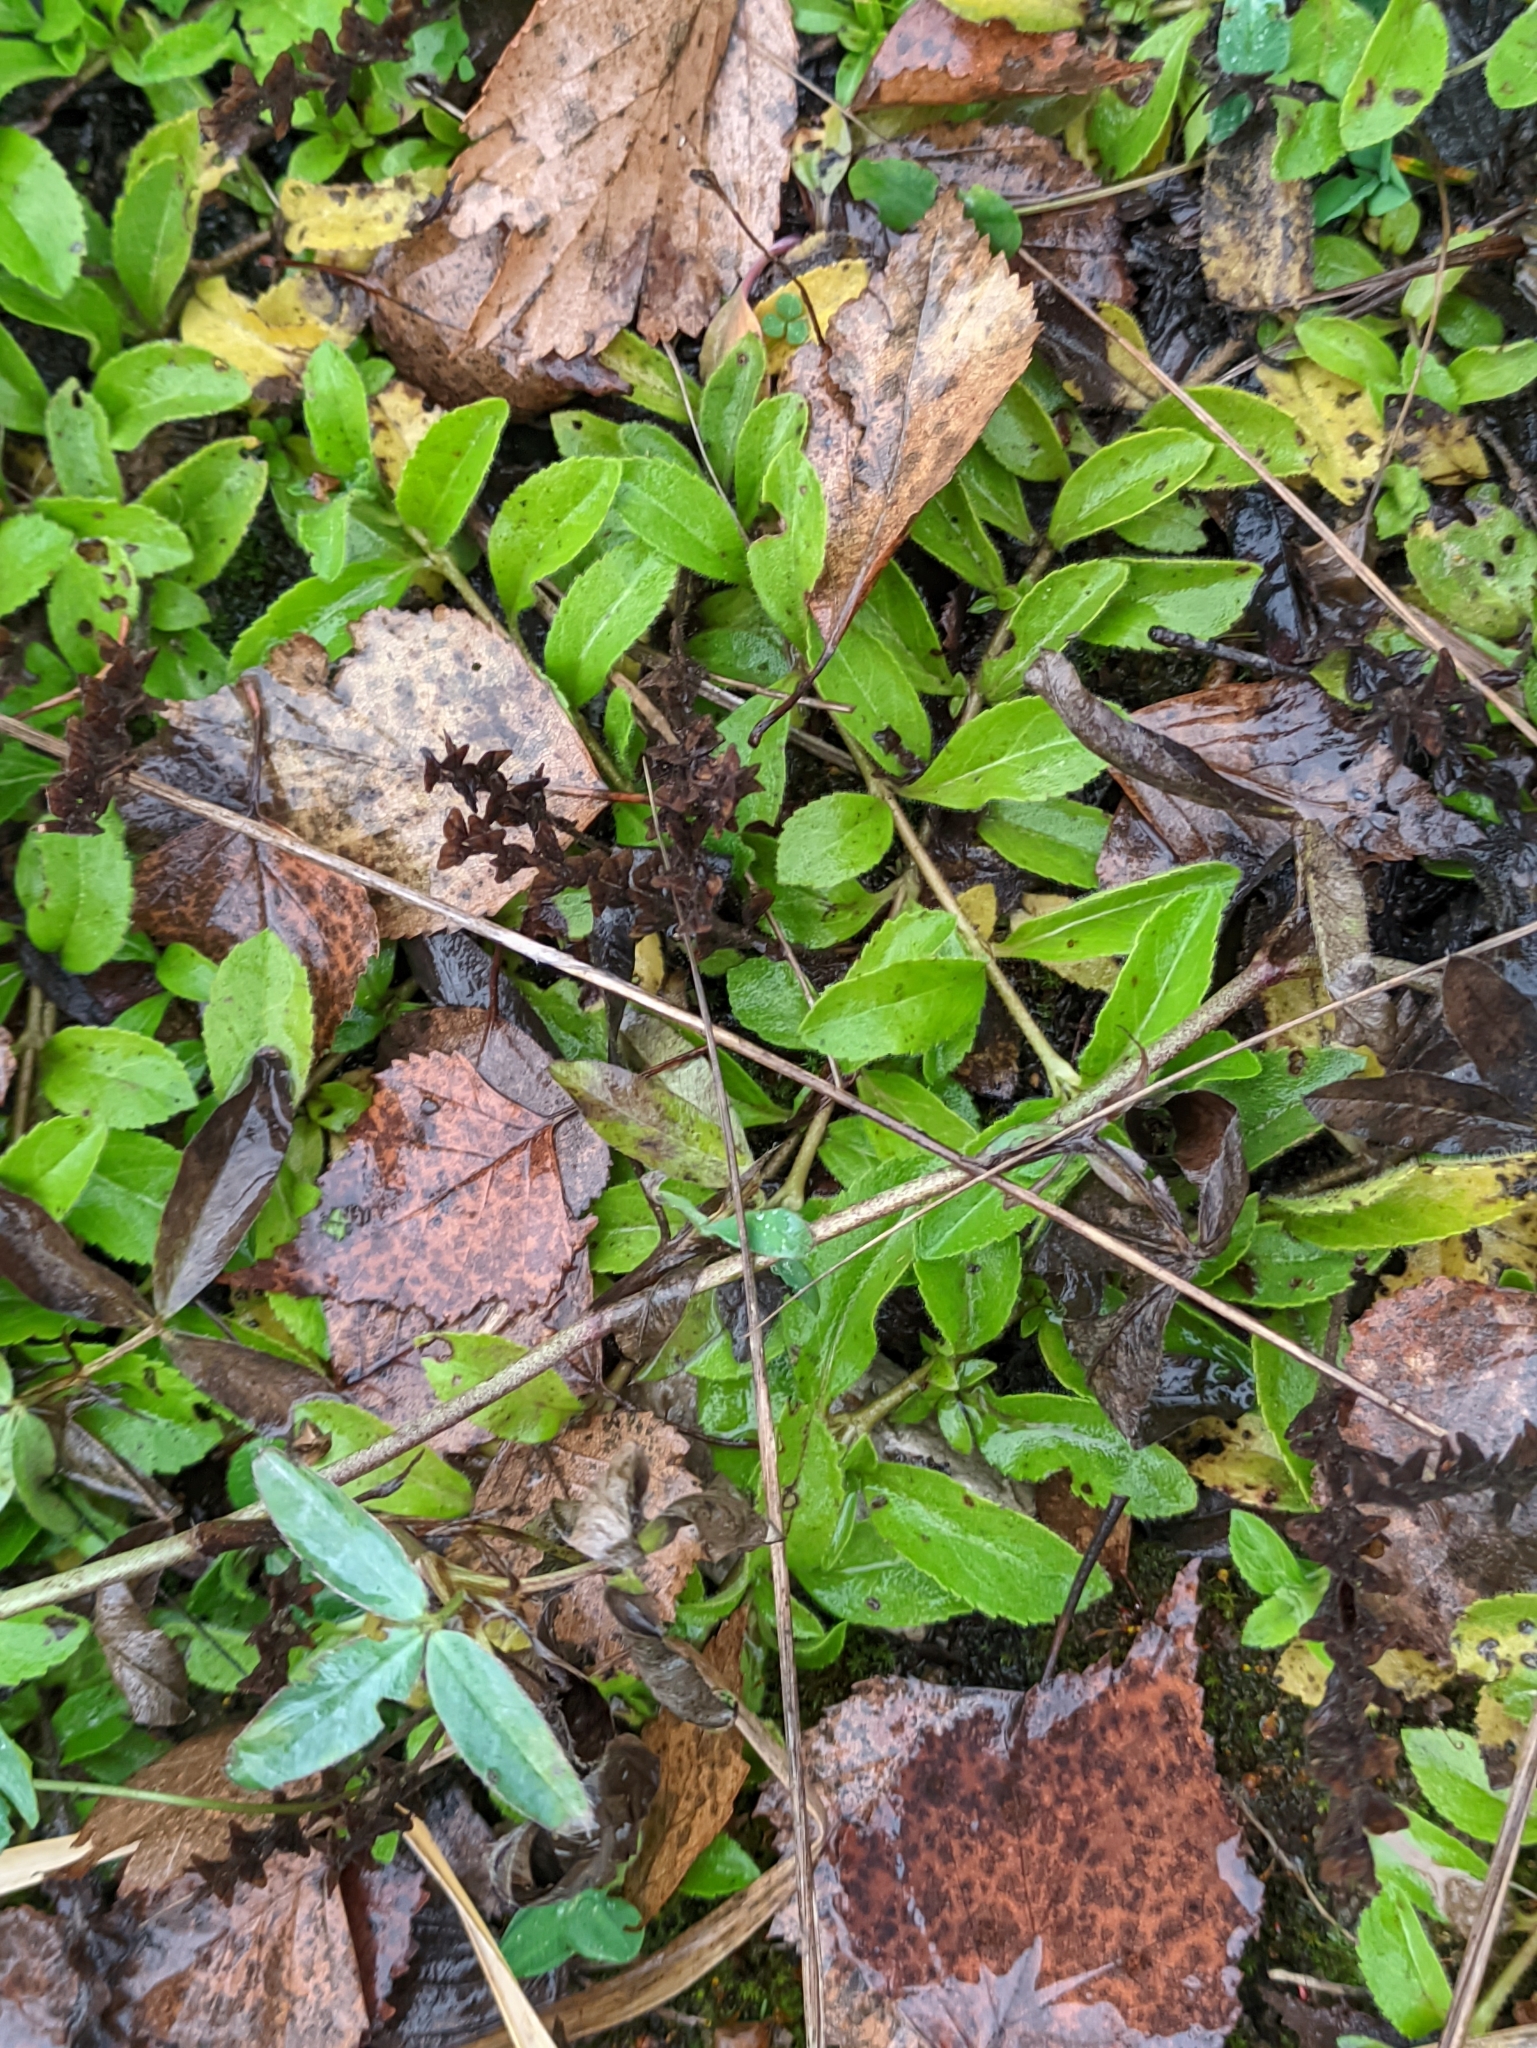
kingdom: Plantae
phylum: Tracheophyta
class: Magnoliopsida
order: Lamiales
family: Plantaginaceae
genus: Veronica
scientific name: Veronica officinalis
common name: Common speedwell
